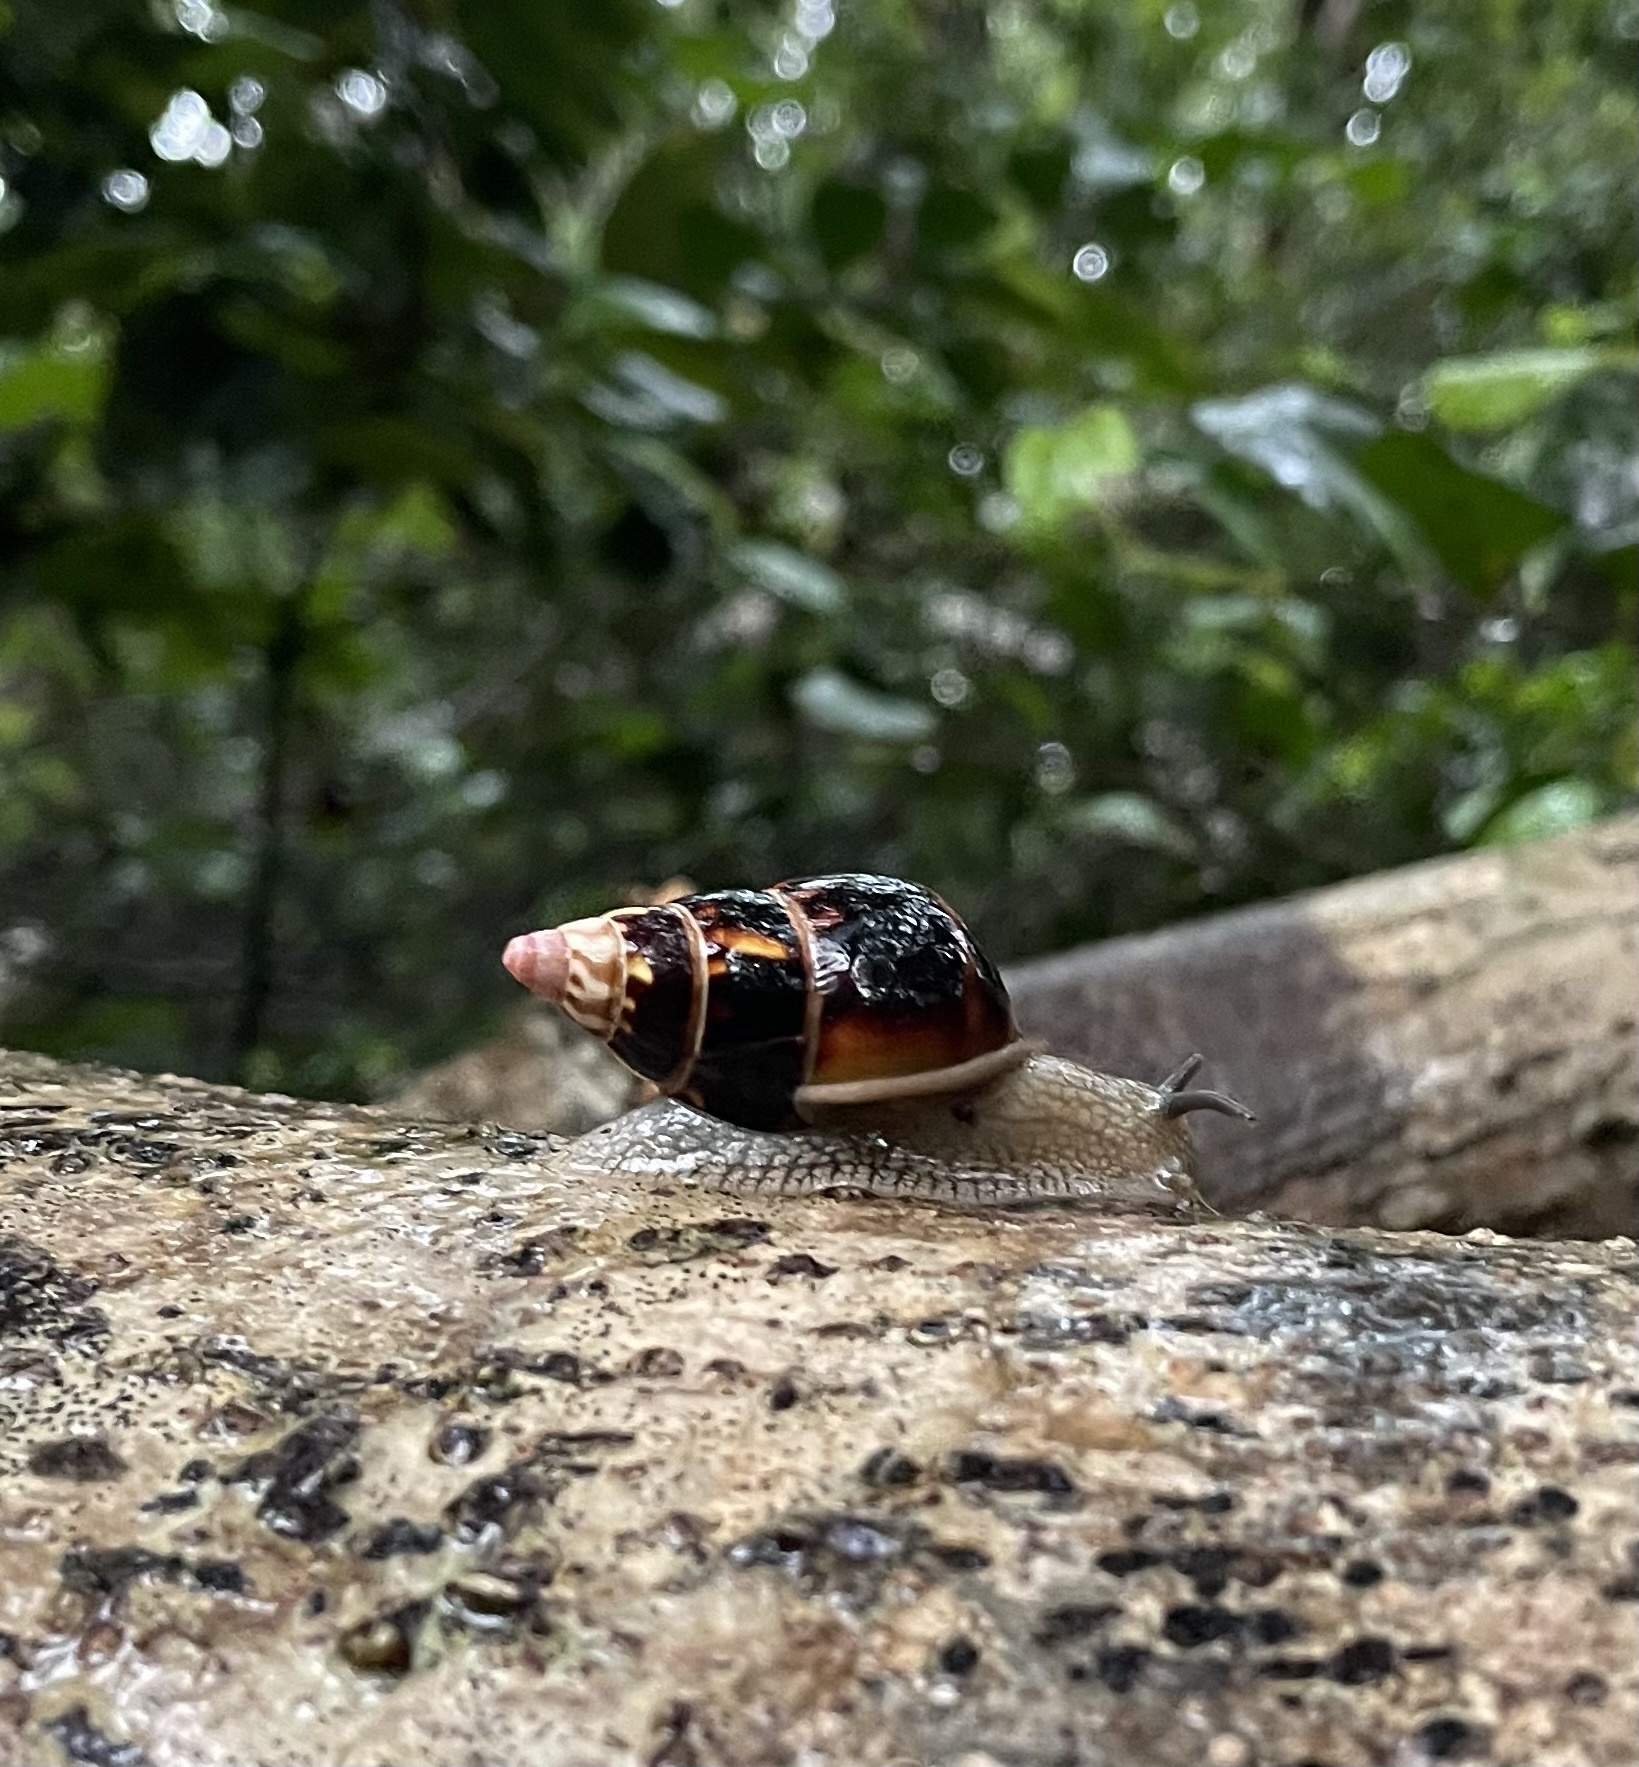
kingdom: Animalia
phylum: Mollusca
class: Gastropoda
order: Stylommatophora
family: Orthalicidae
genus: Liguus
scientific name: Liguus fasciatus
